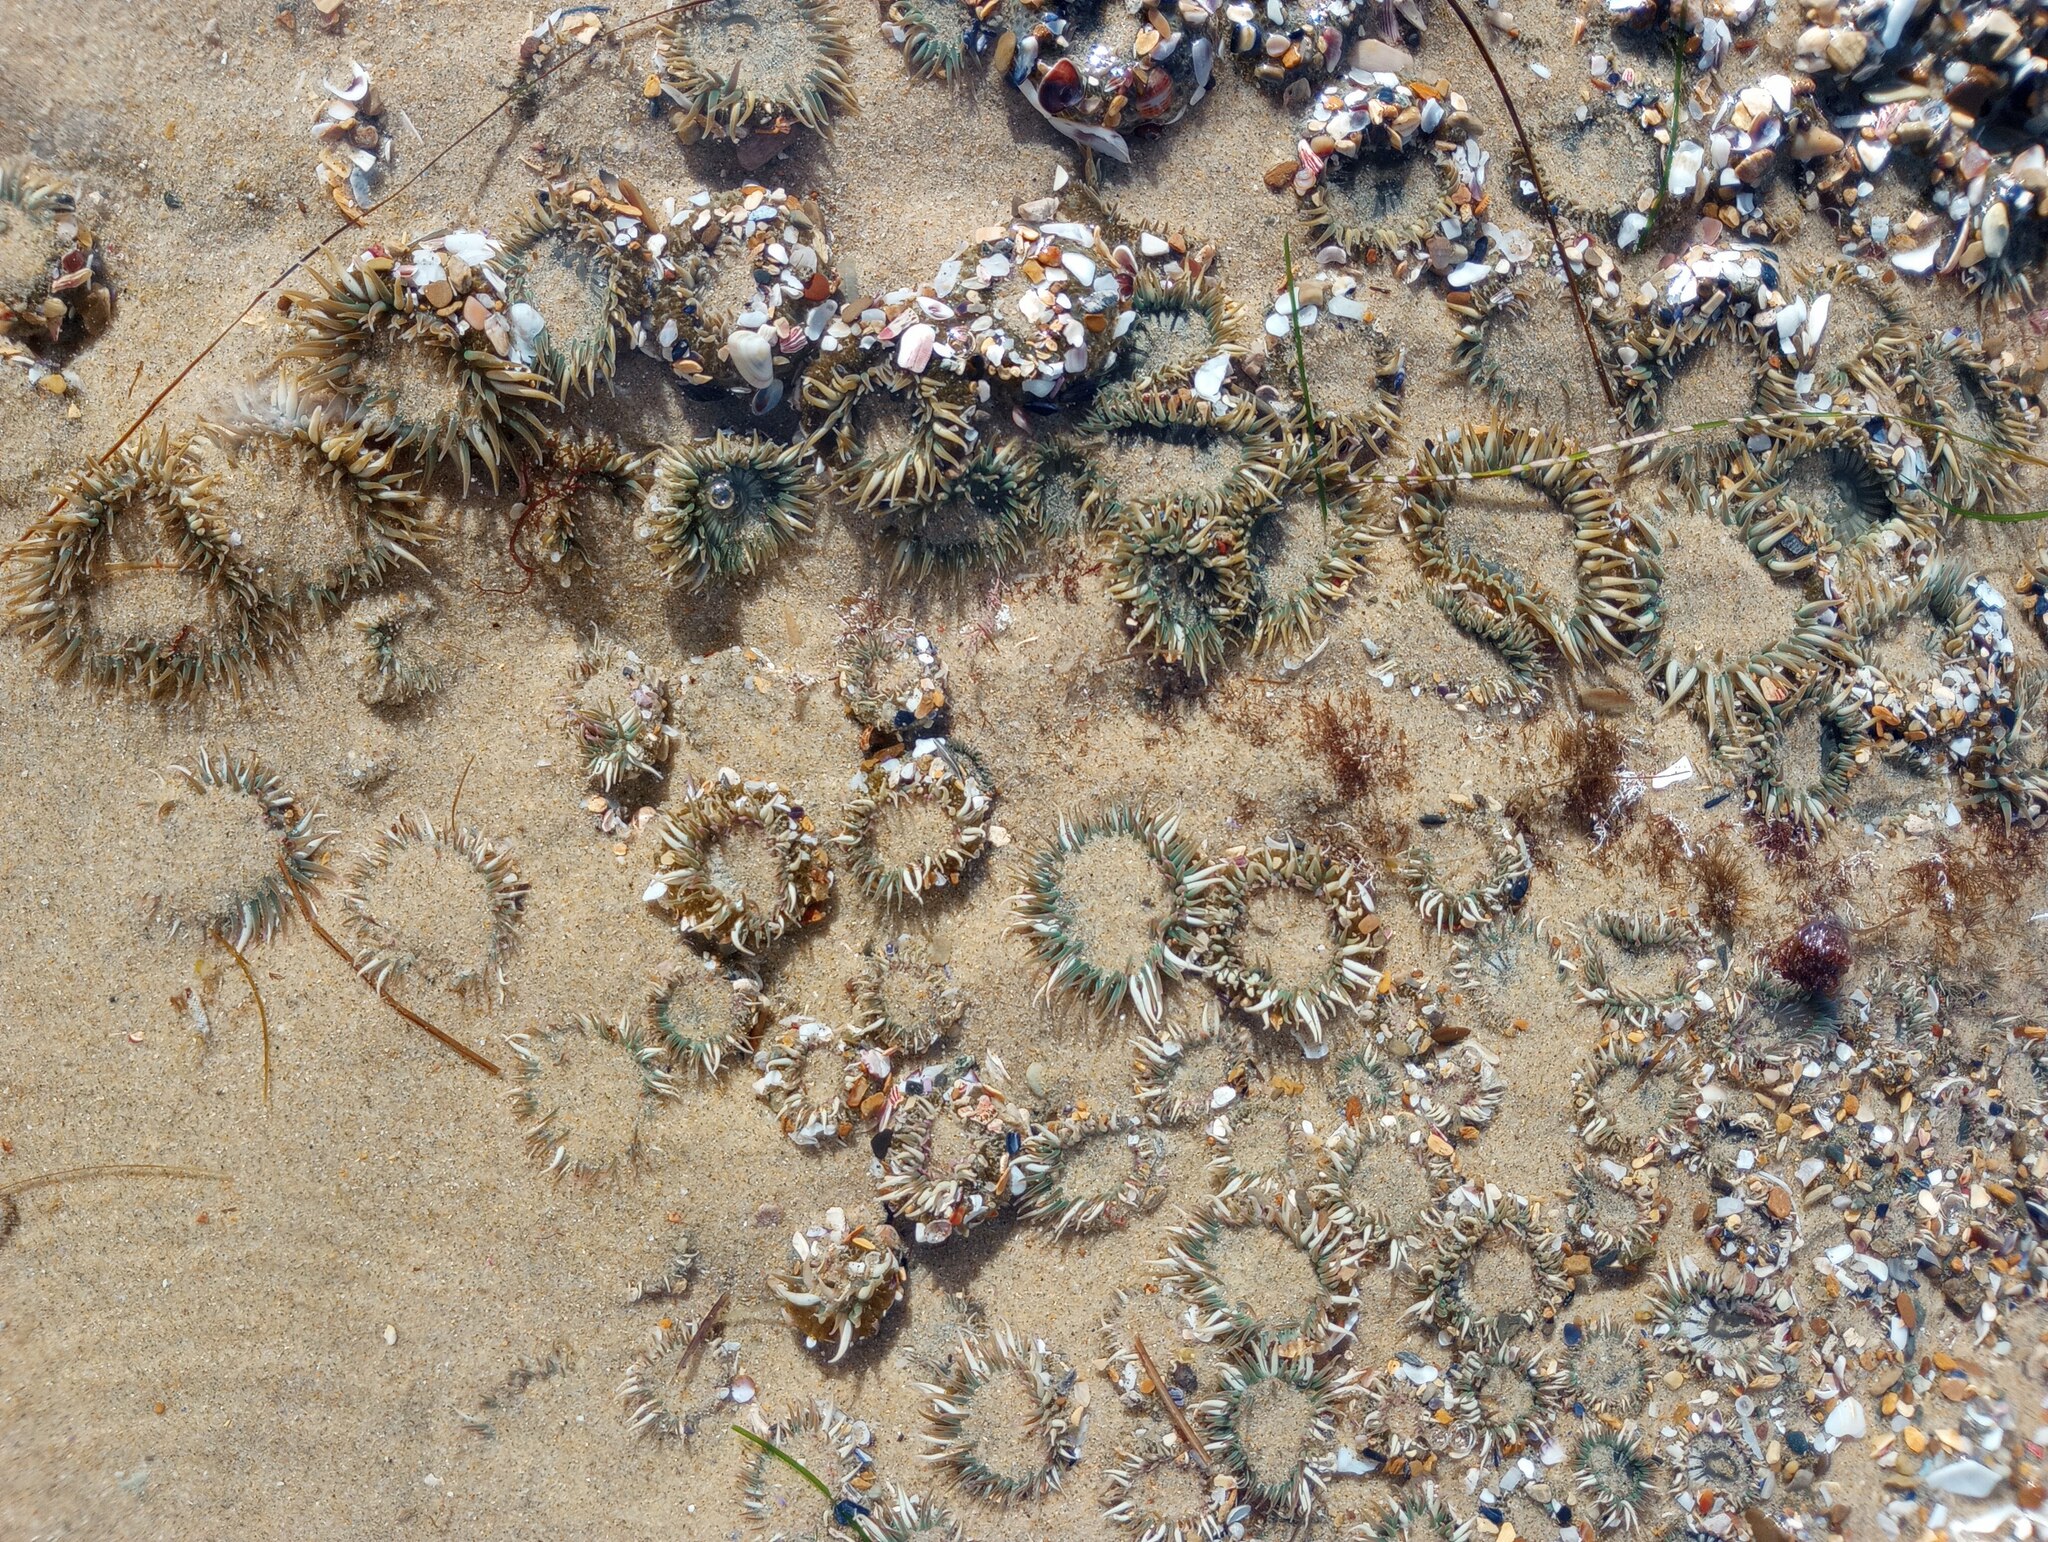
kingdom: Animalia
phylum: Cnidaria
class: Anthozoa
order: Actiniaria
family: Actiniidae
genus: Anthopleura
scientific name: Anthopleura elegantissima
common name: Clonal anemone
